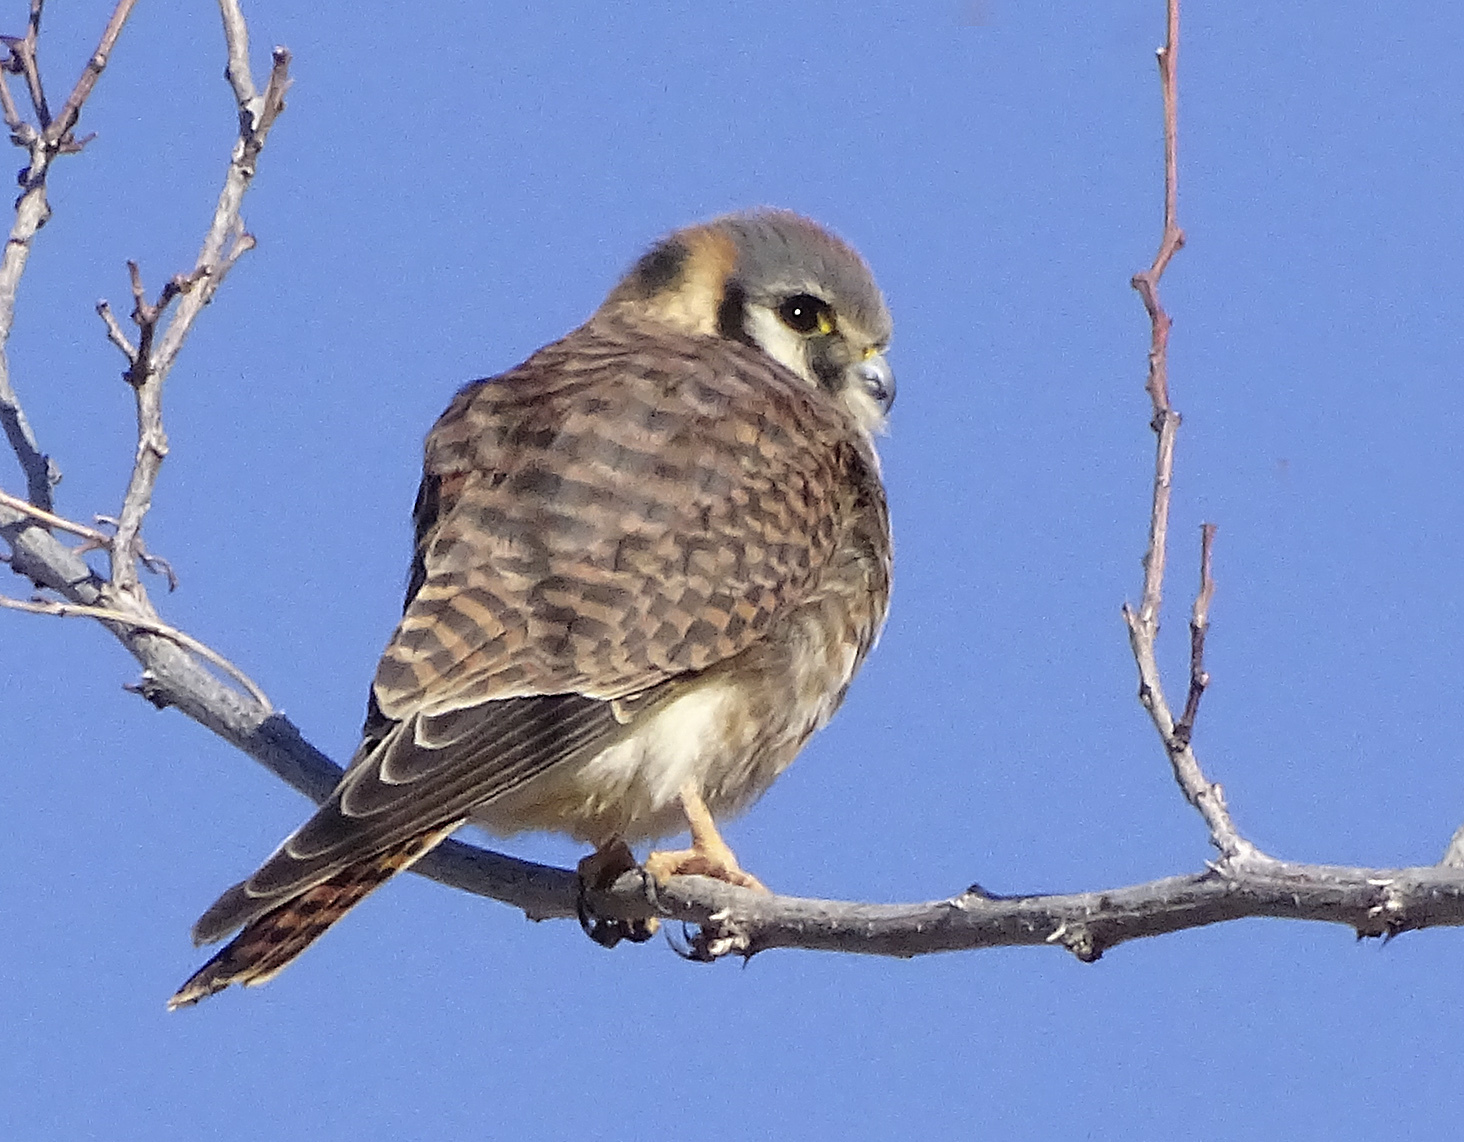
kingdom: Animalia
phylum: Chordata
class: Aves
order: Falconiformes
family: Falconidae
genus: Falco
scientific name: Falco sparverius
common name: American kestrel
